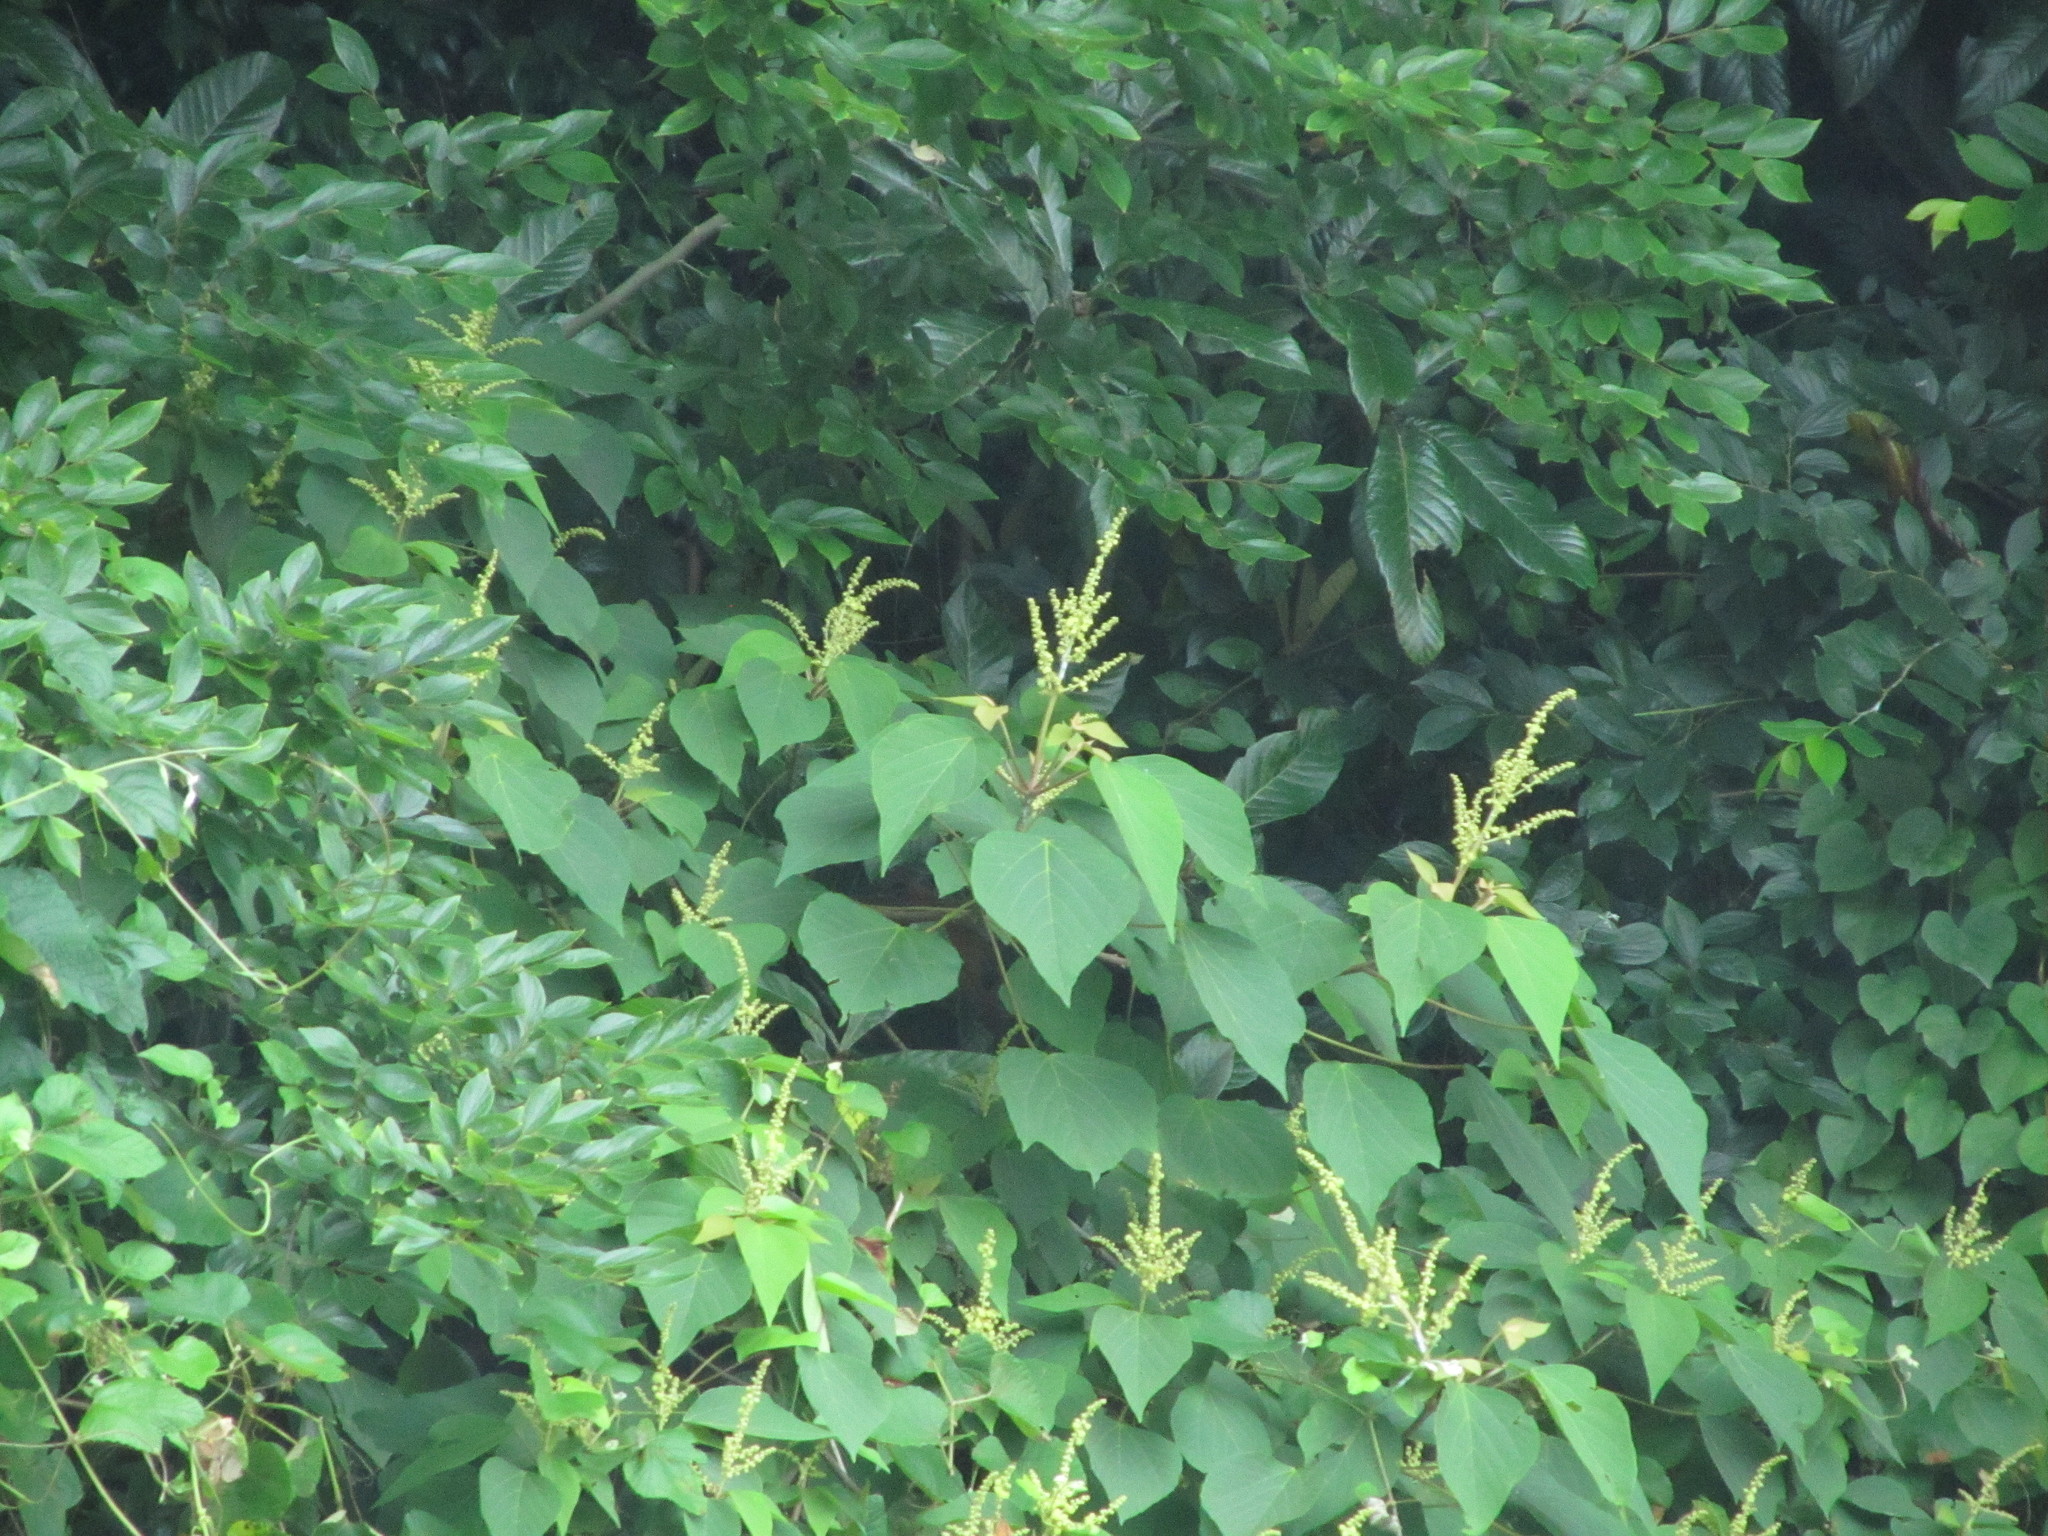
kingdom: Plantae
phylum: Tracheophyta
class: Magnoliopsida
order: Malpighiales
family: Euphorbiaceae
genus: Mallotus
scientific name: Mallotus japonicus
